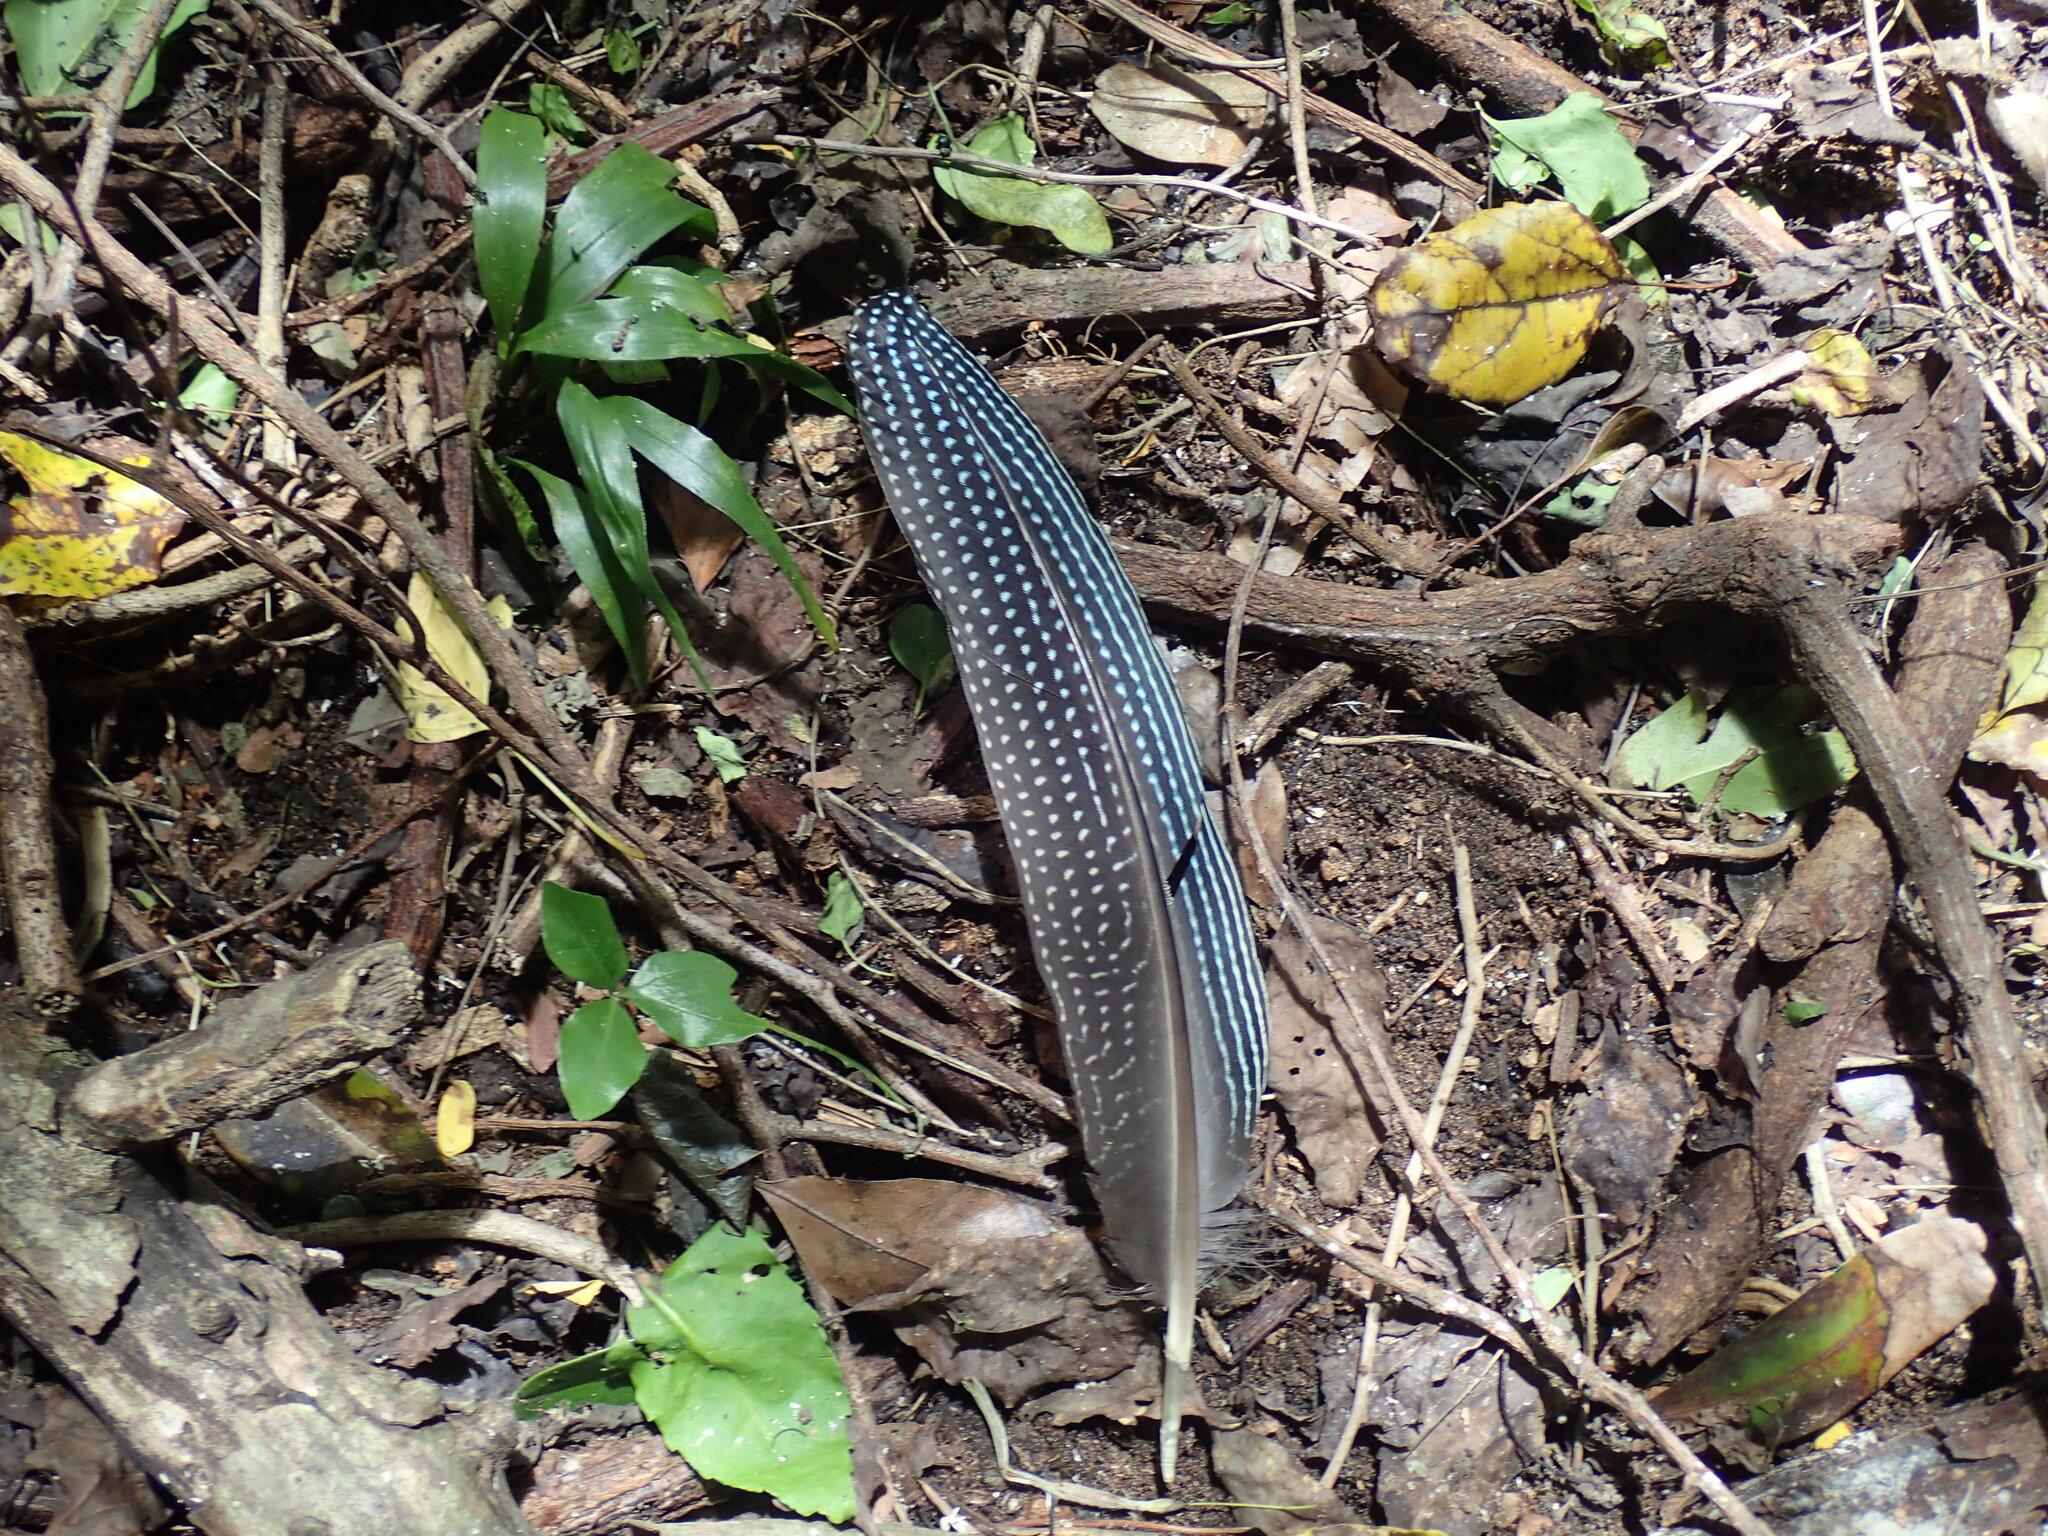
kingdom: Animalia
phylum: Chordata
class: Aves
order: Galliformes
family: Numididae
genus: Guttera
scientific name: Guttera pucherani
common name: Crested guineafowl
